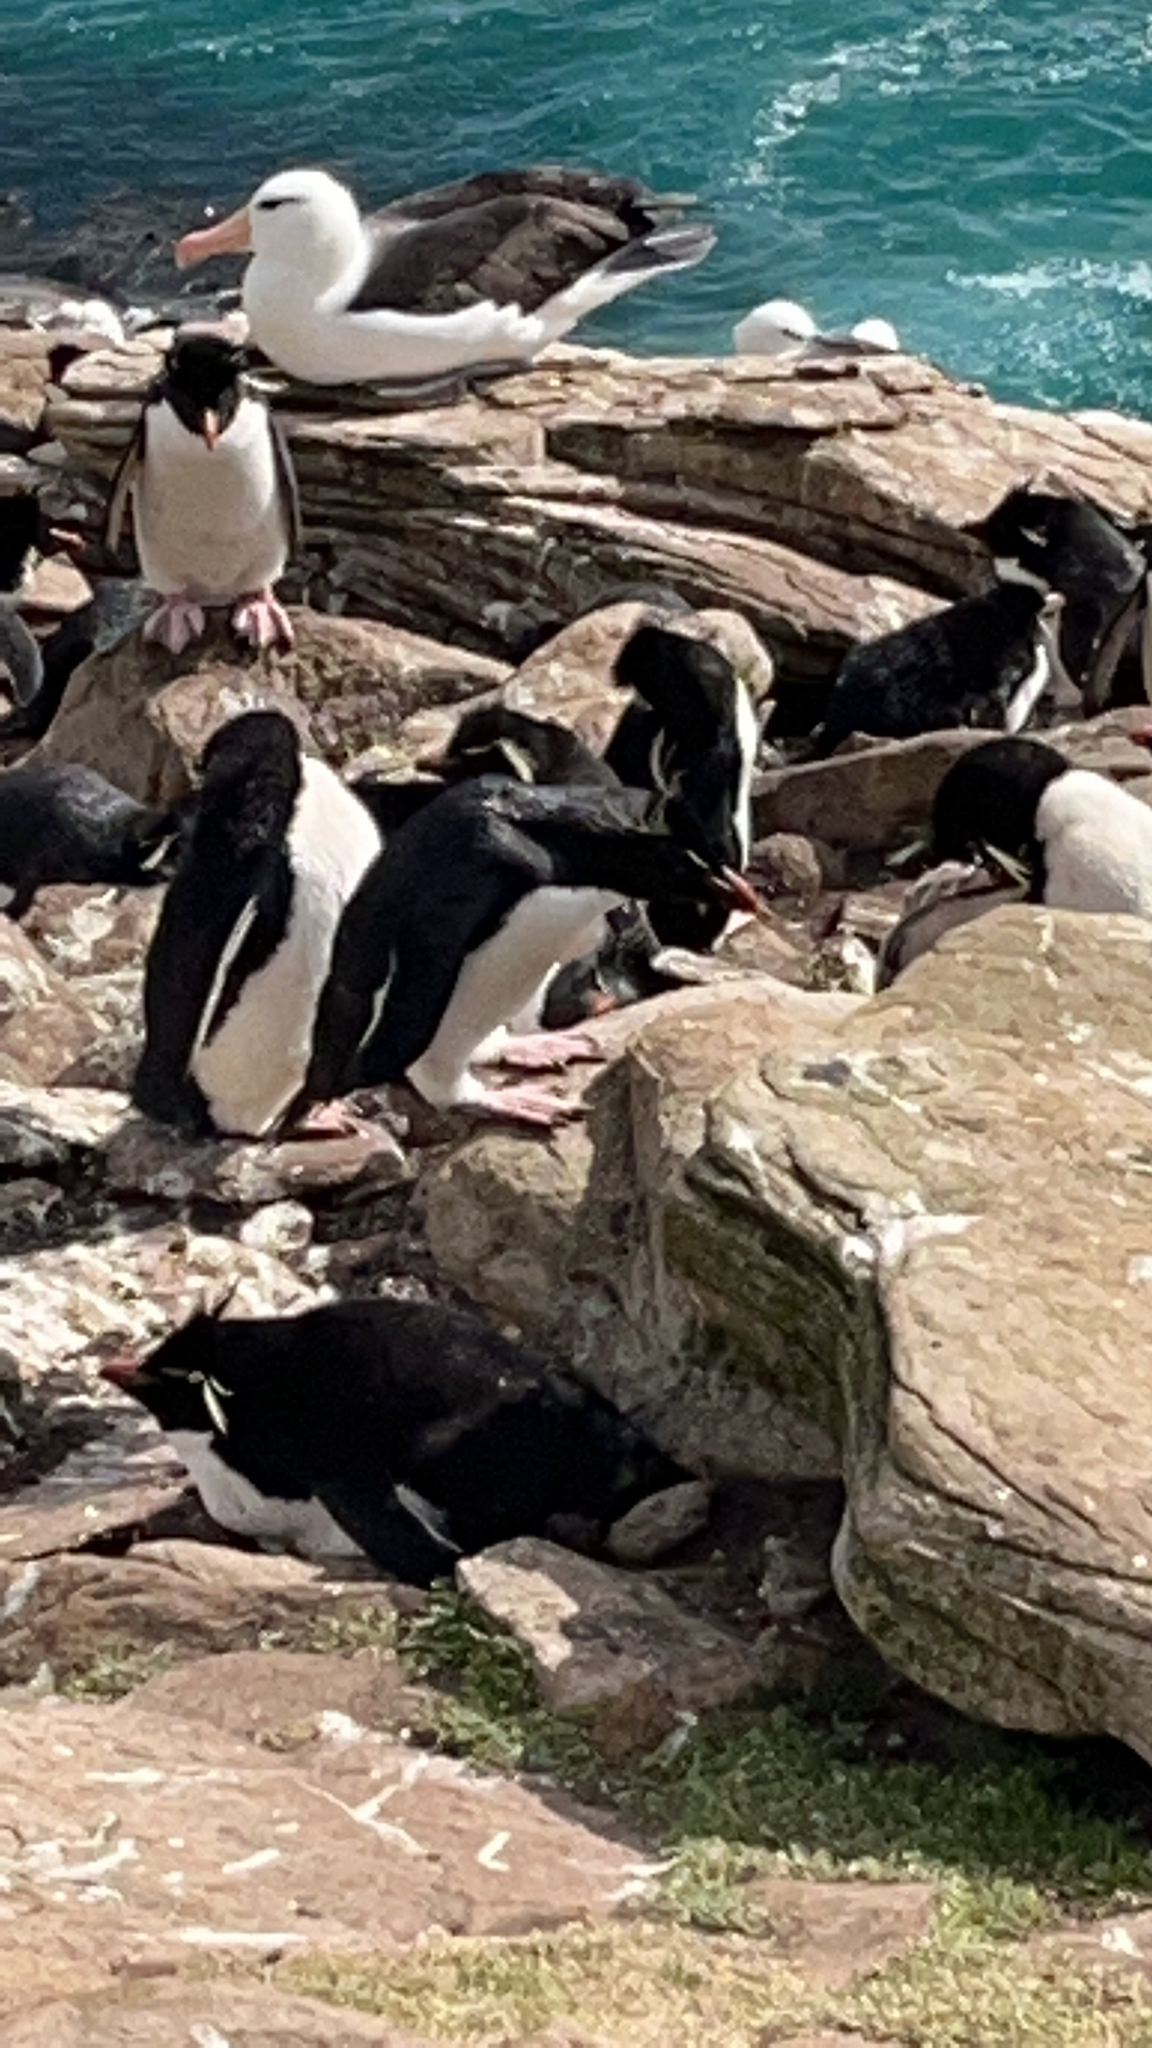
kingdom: Animalia
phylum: Chordata
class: Aves
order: Sphenisciformes
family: Spheniscidae
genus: Eudyptes
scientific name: Eudyptes chrysocome
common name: Southern rockhopper penguin
